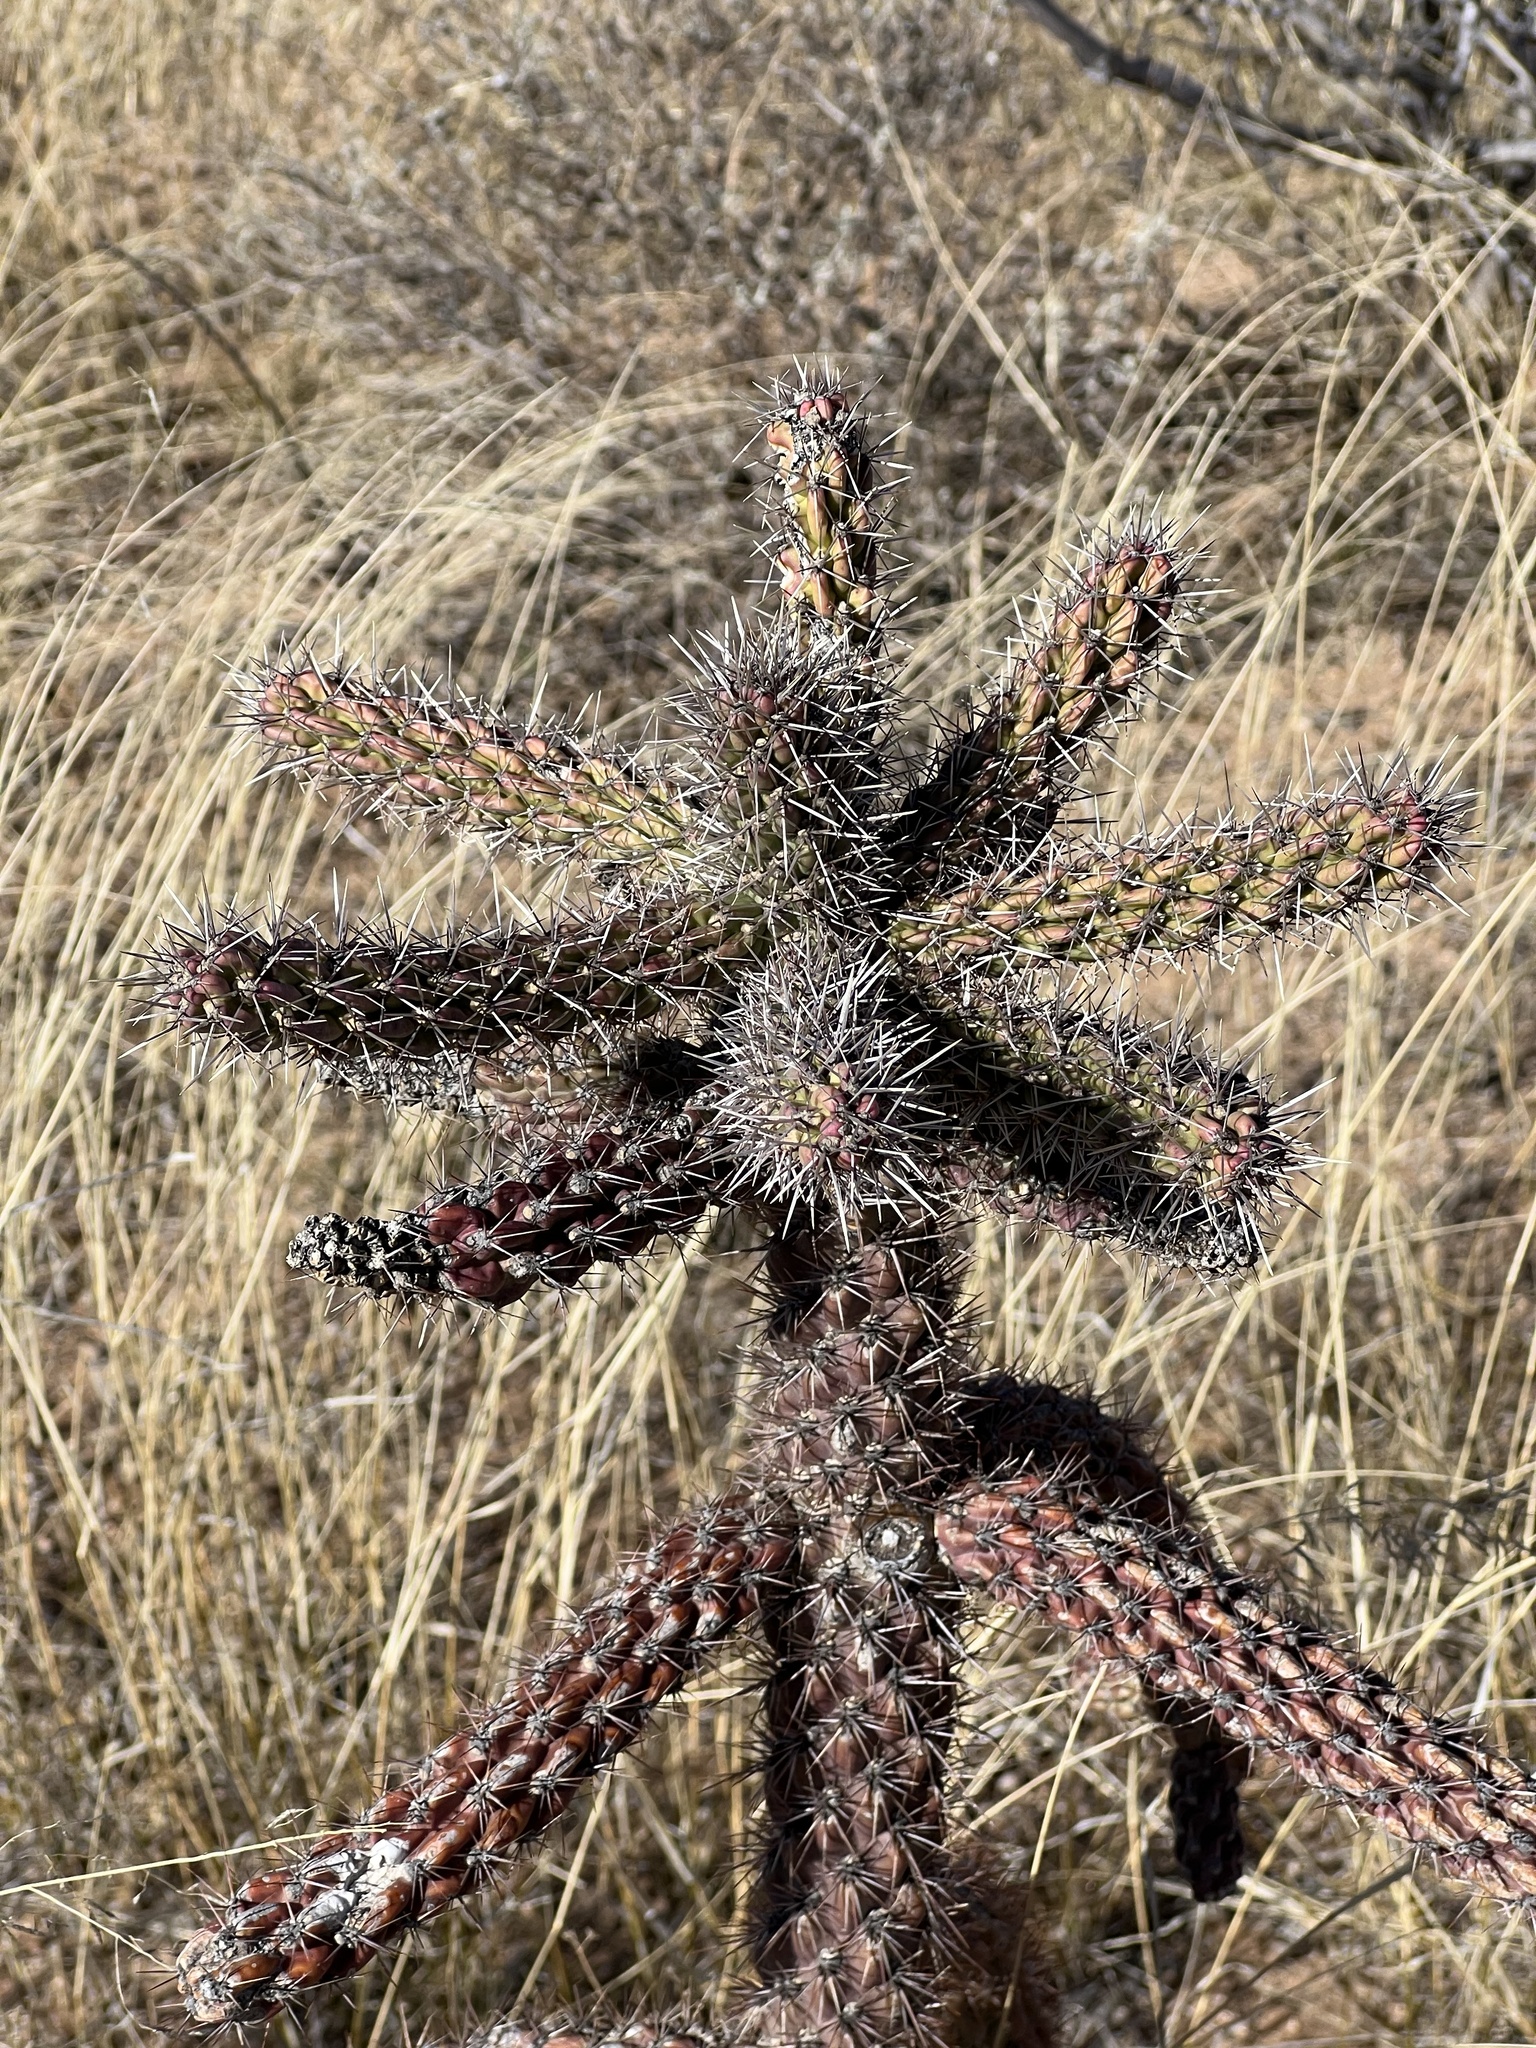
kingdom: Plantae
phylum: Tracheophyta
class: Magnoliopsida
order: Caryophyllales
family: Cactaceae
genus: Cylindropuntia
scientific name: Cylindropuntia imbricata
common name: Candelabrum cactus
